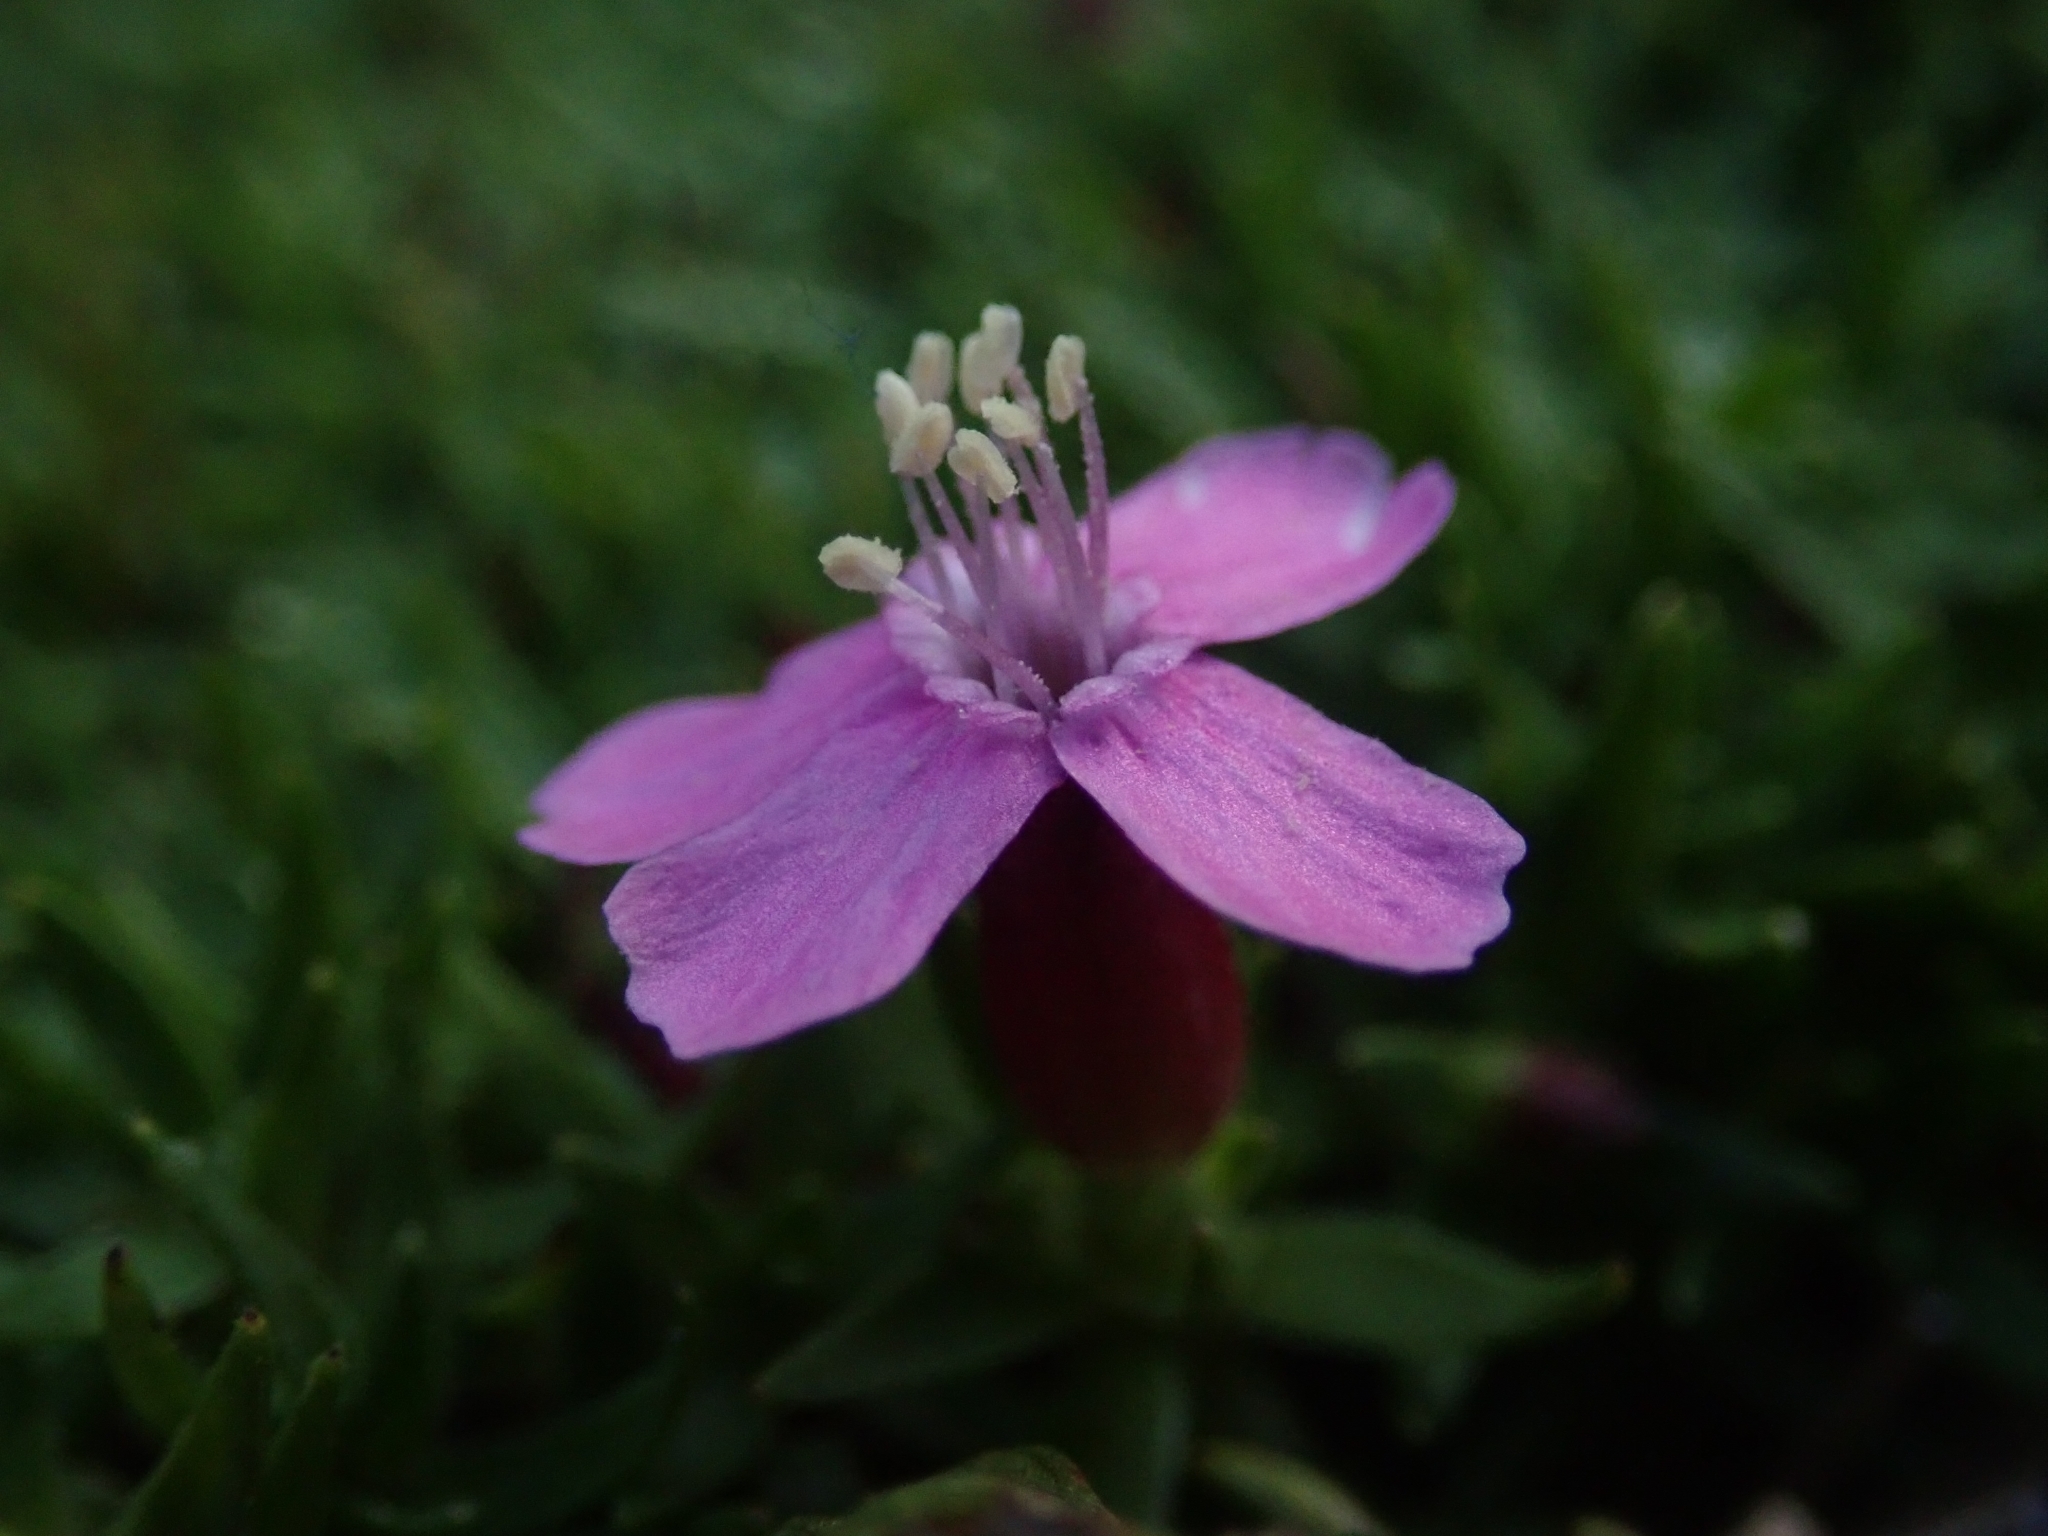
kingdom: Plantae
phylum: Tracheophyta
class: Magnoliopsida
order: Caryophyllales
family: Caryophyllaceae
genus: Silene
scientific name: Silene acaulis
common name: Moss campion
